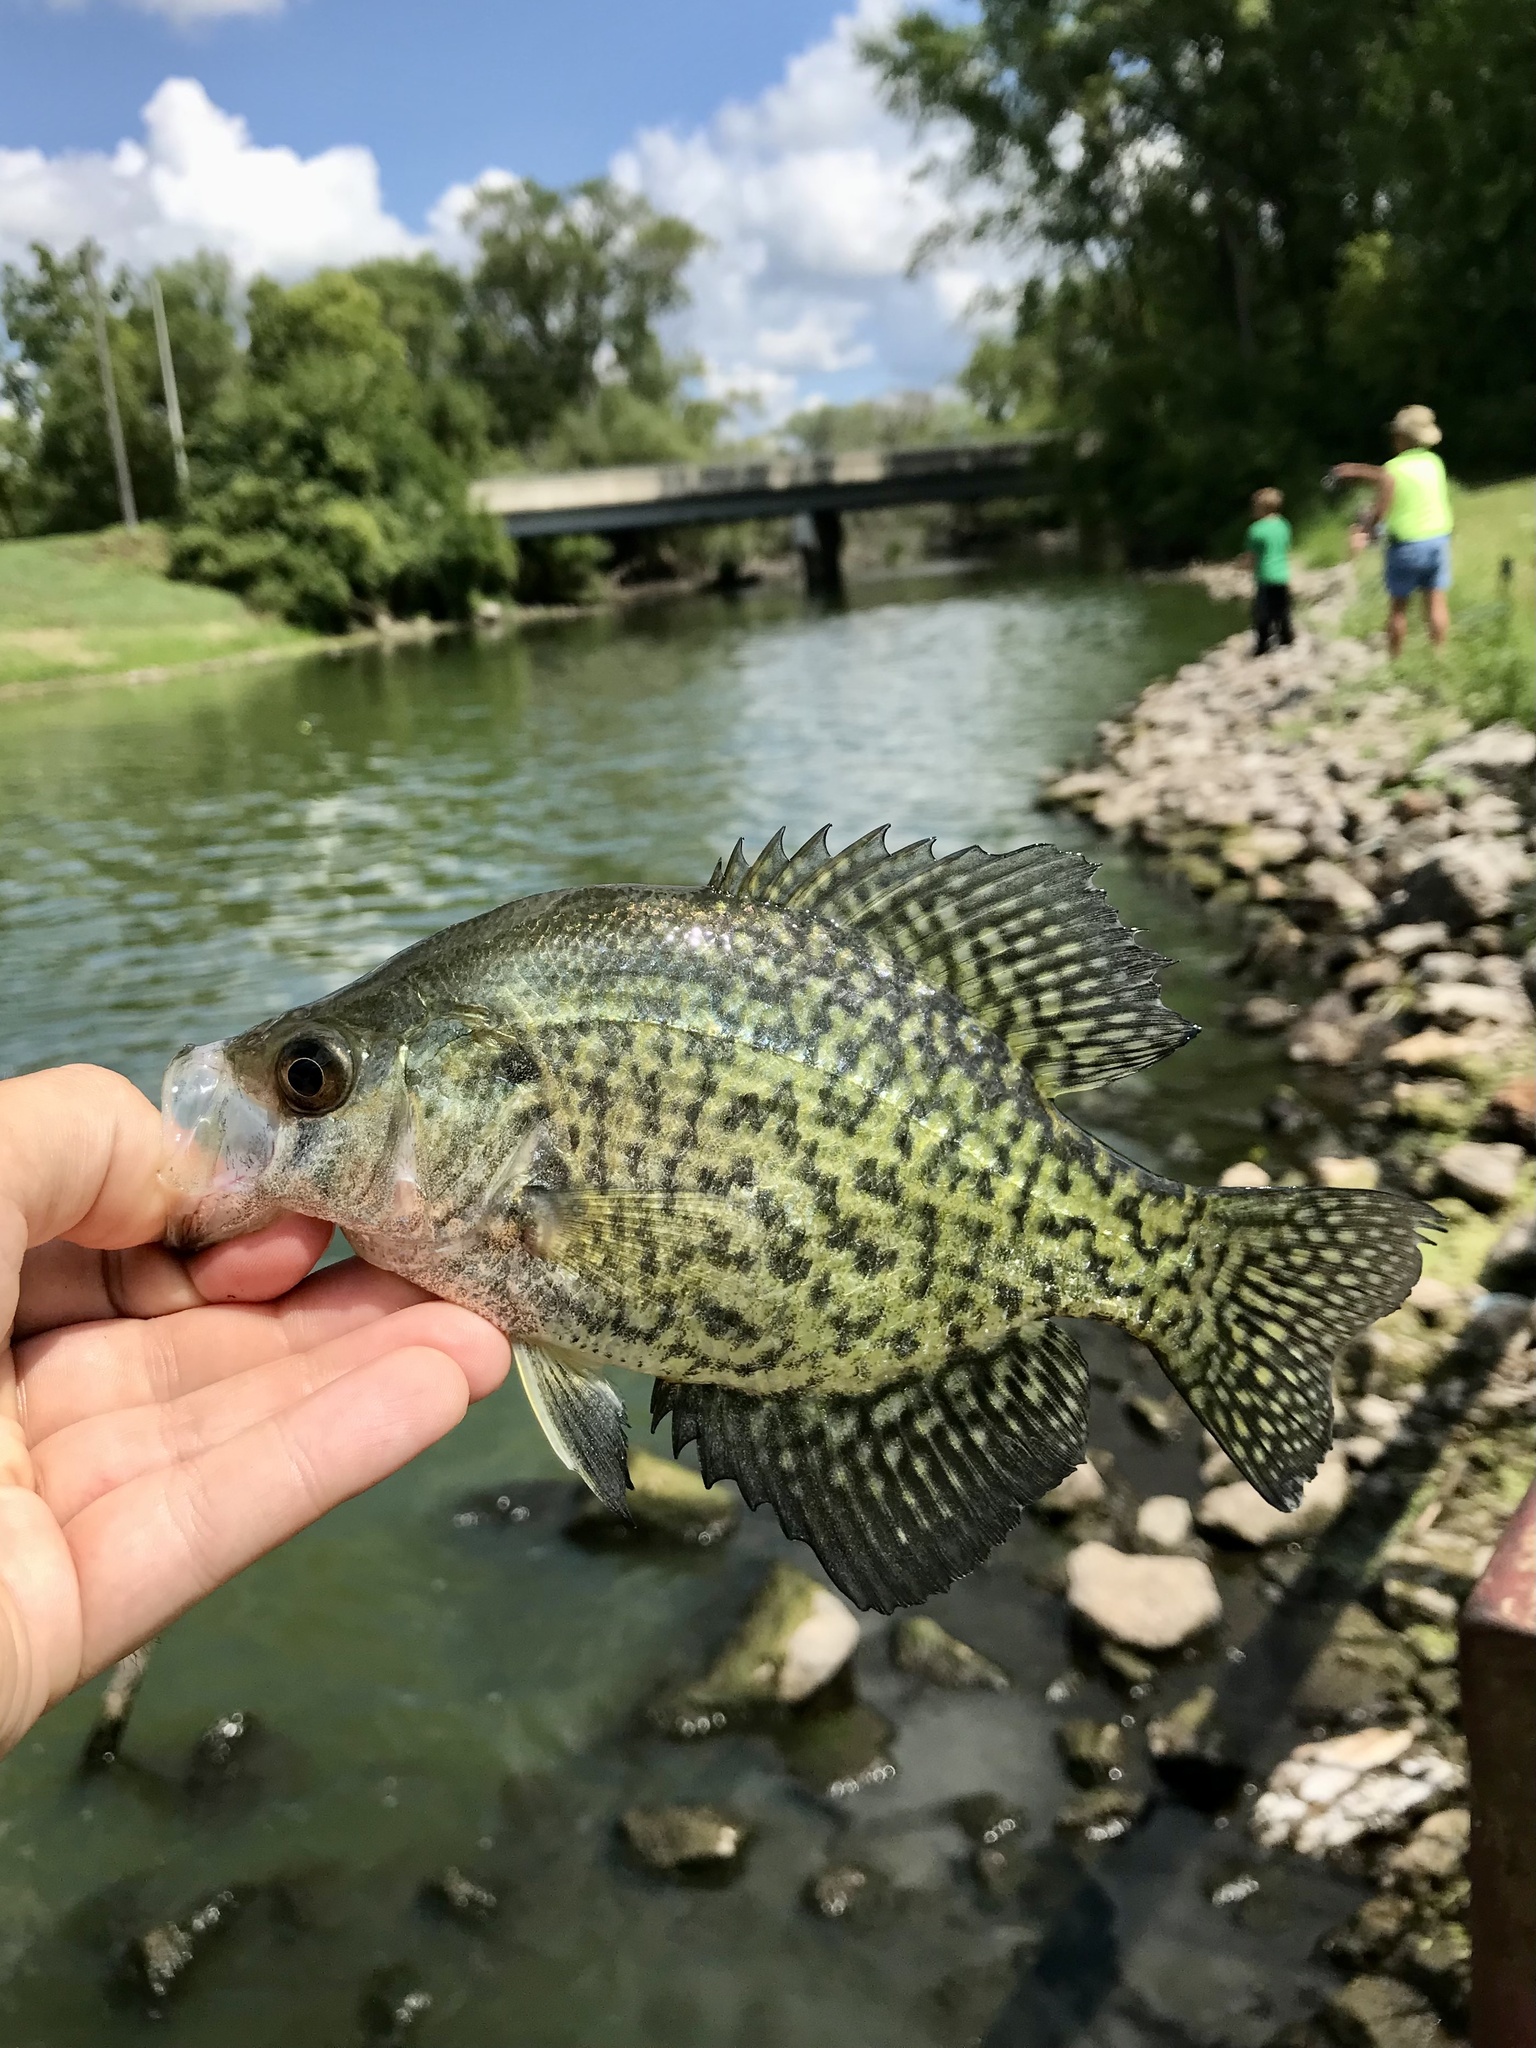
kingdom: Animalia
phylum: Chordata
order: Perciformes
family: Centrarchidae
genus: Pomoxis
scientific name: Pomoxis nigromaculatus
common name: Black crappie
